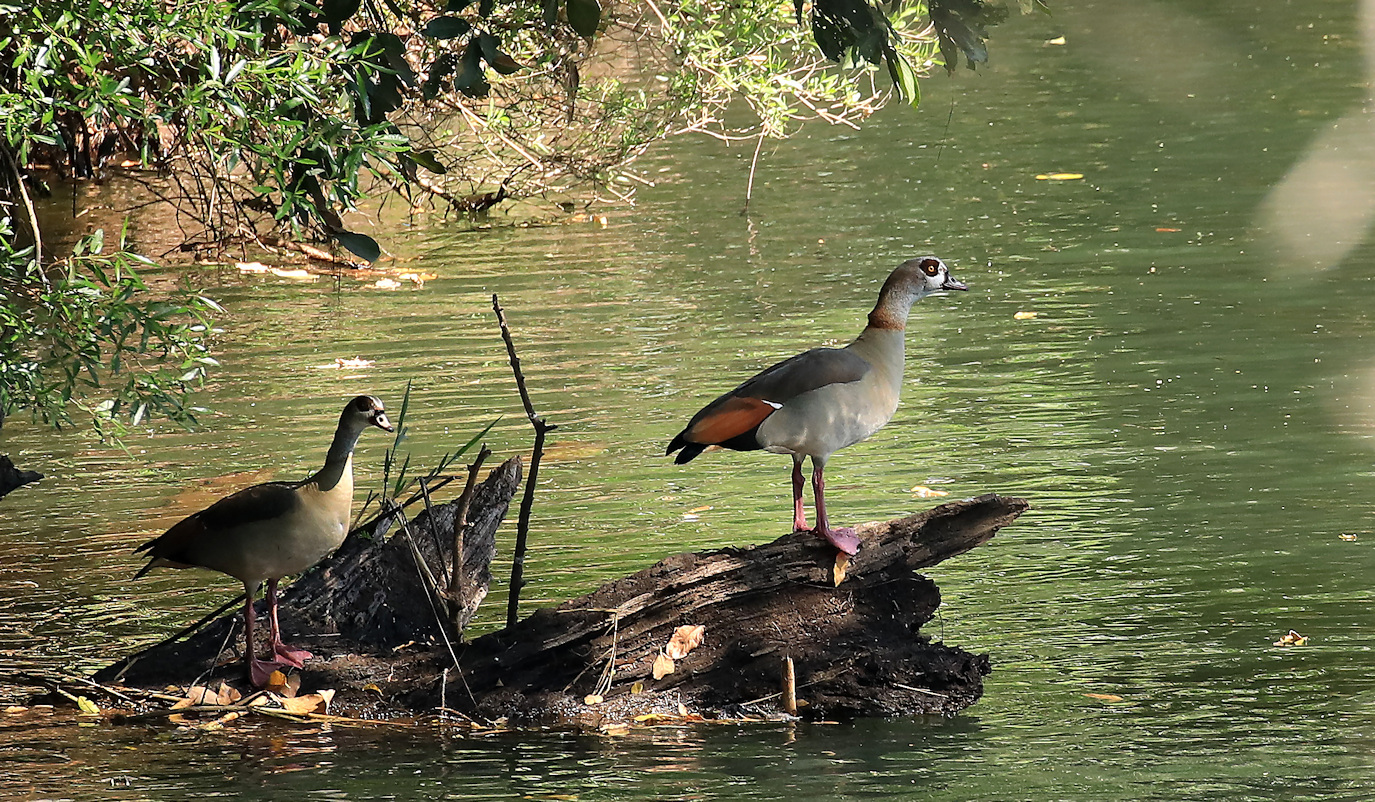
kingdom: Animalia
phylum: Chordata
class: Aves
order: Anseriformes
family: Anatidae
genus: Alopochen
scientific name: Alopochen aegyptiaca
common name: Egyptian goose
